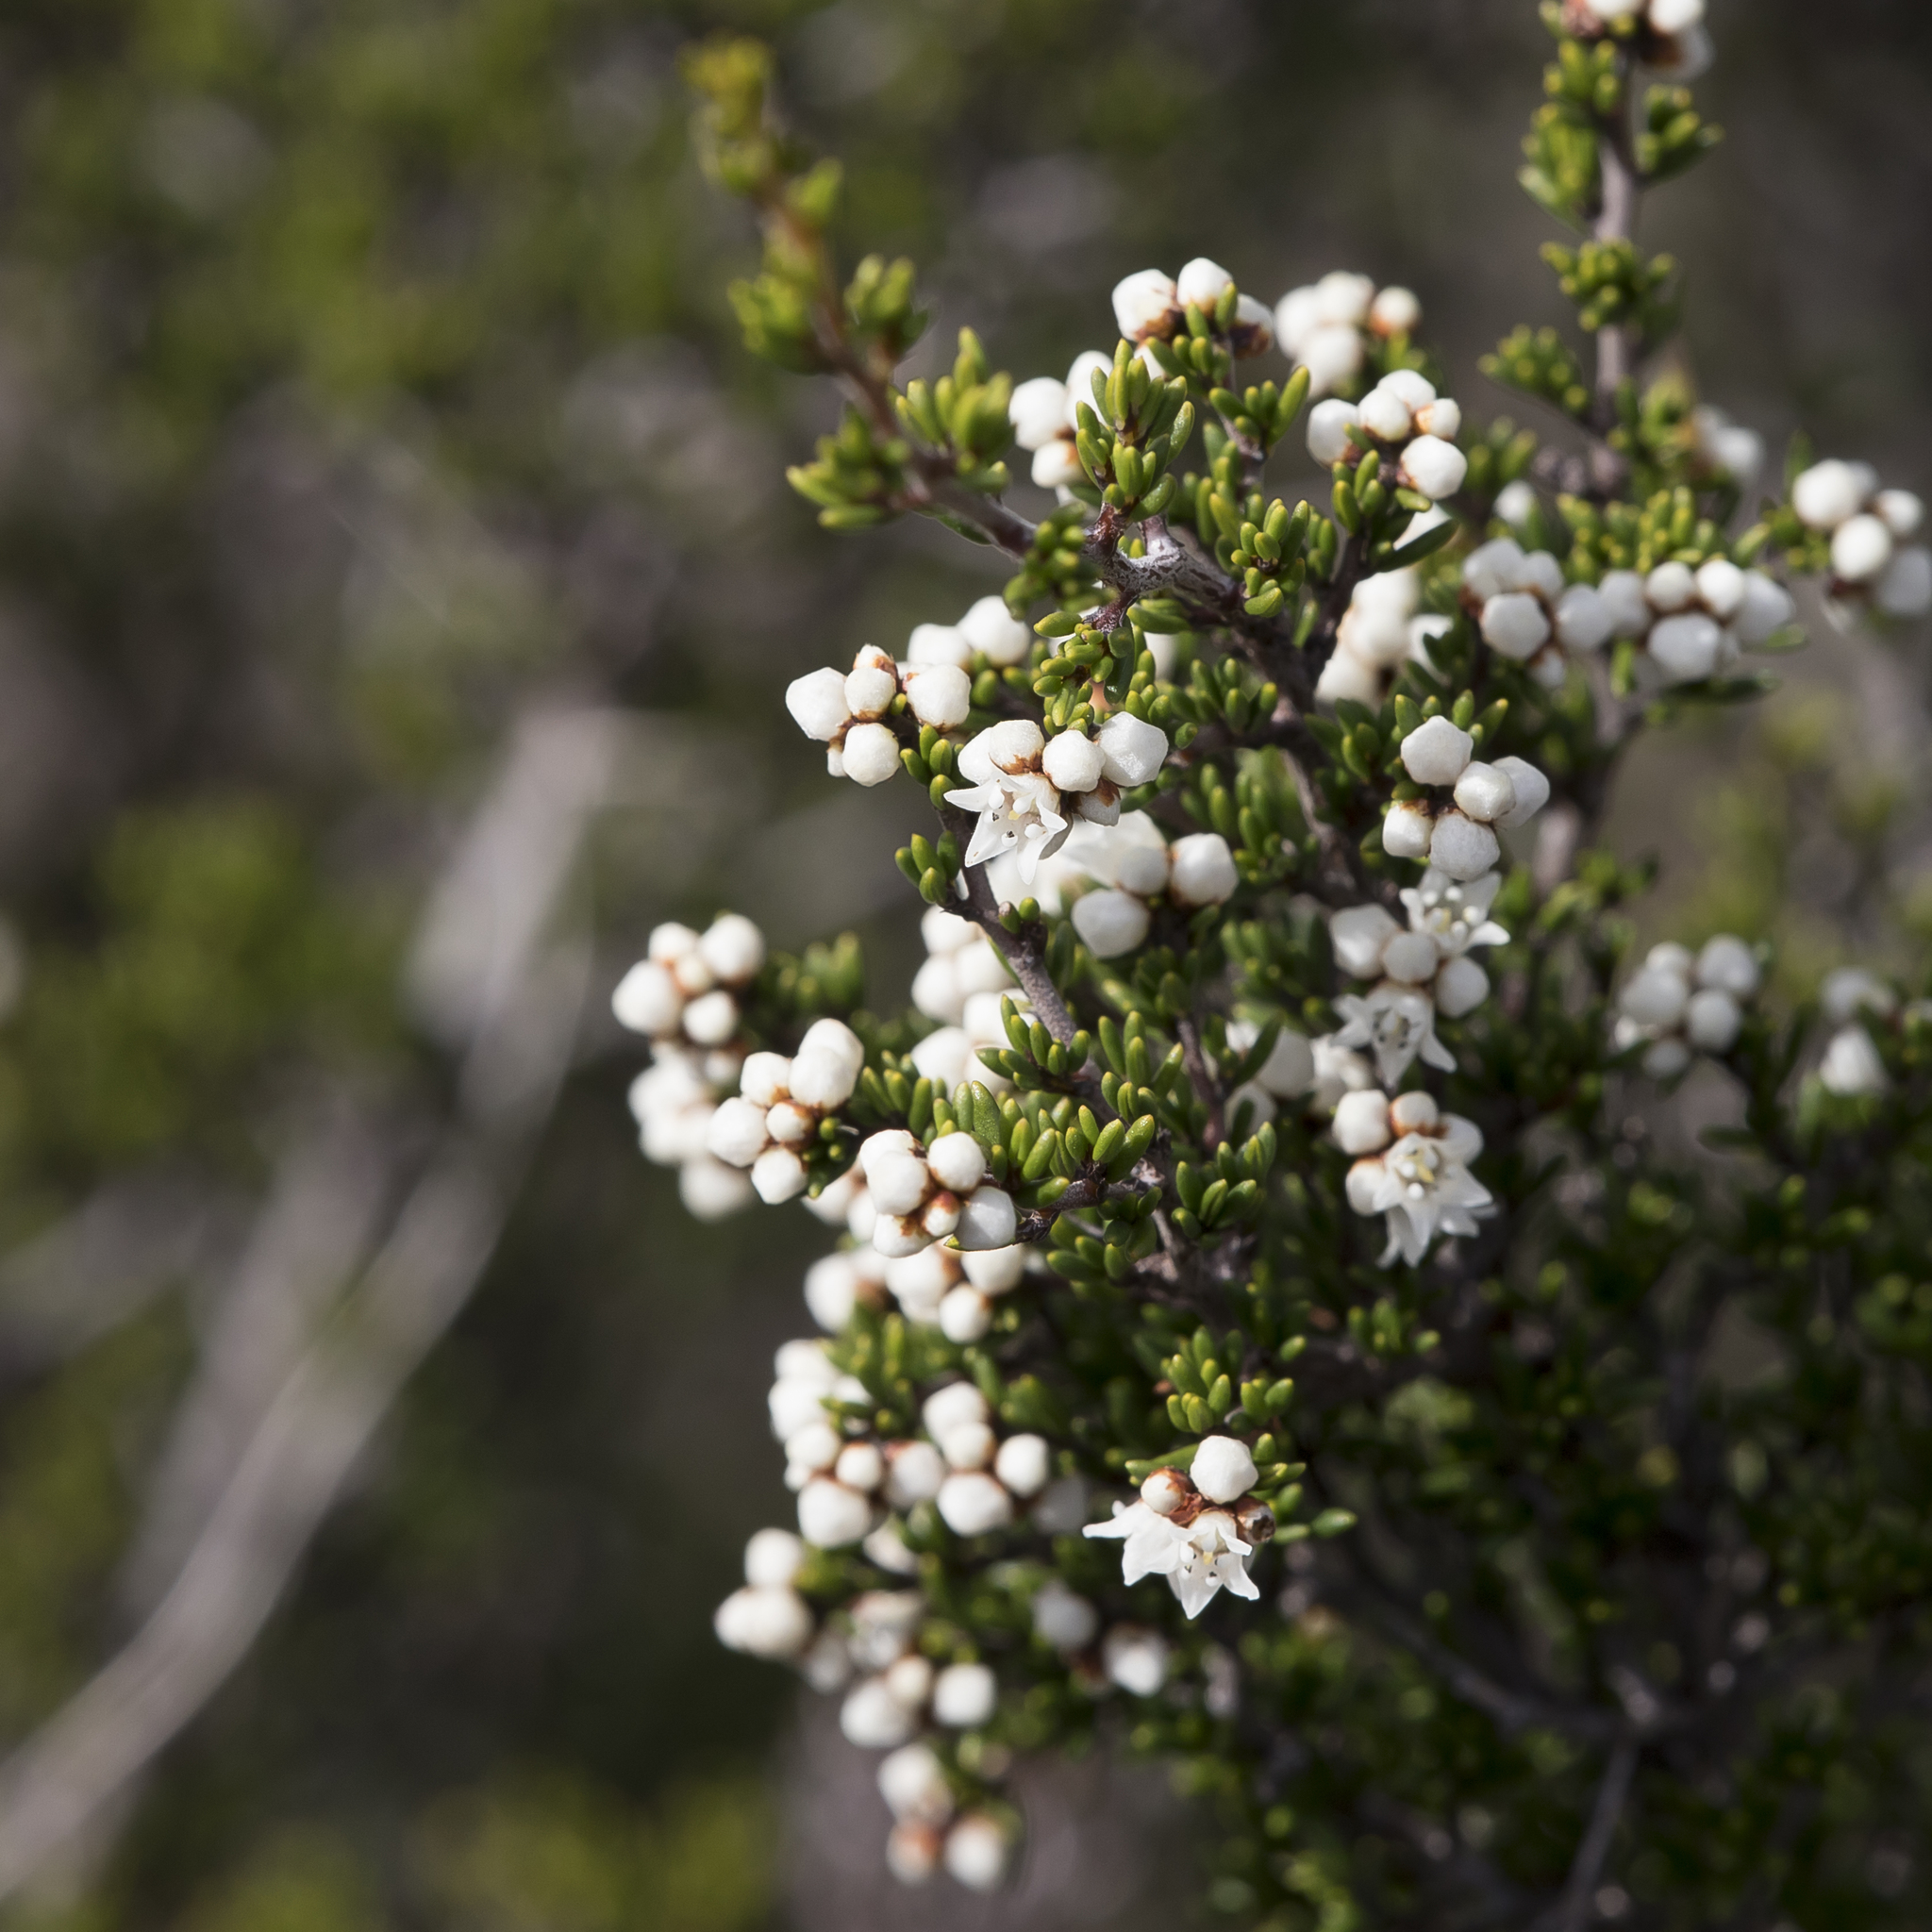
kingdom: Plantae
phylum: Tracheophyta
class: Magnoliopsida
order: Rosales
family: Rhamnaceae
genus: Cryptandra
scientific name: Cryptandra tomentosa
